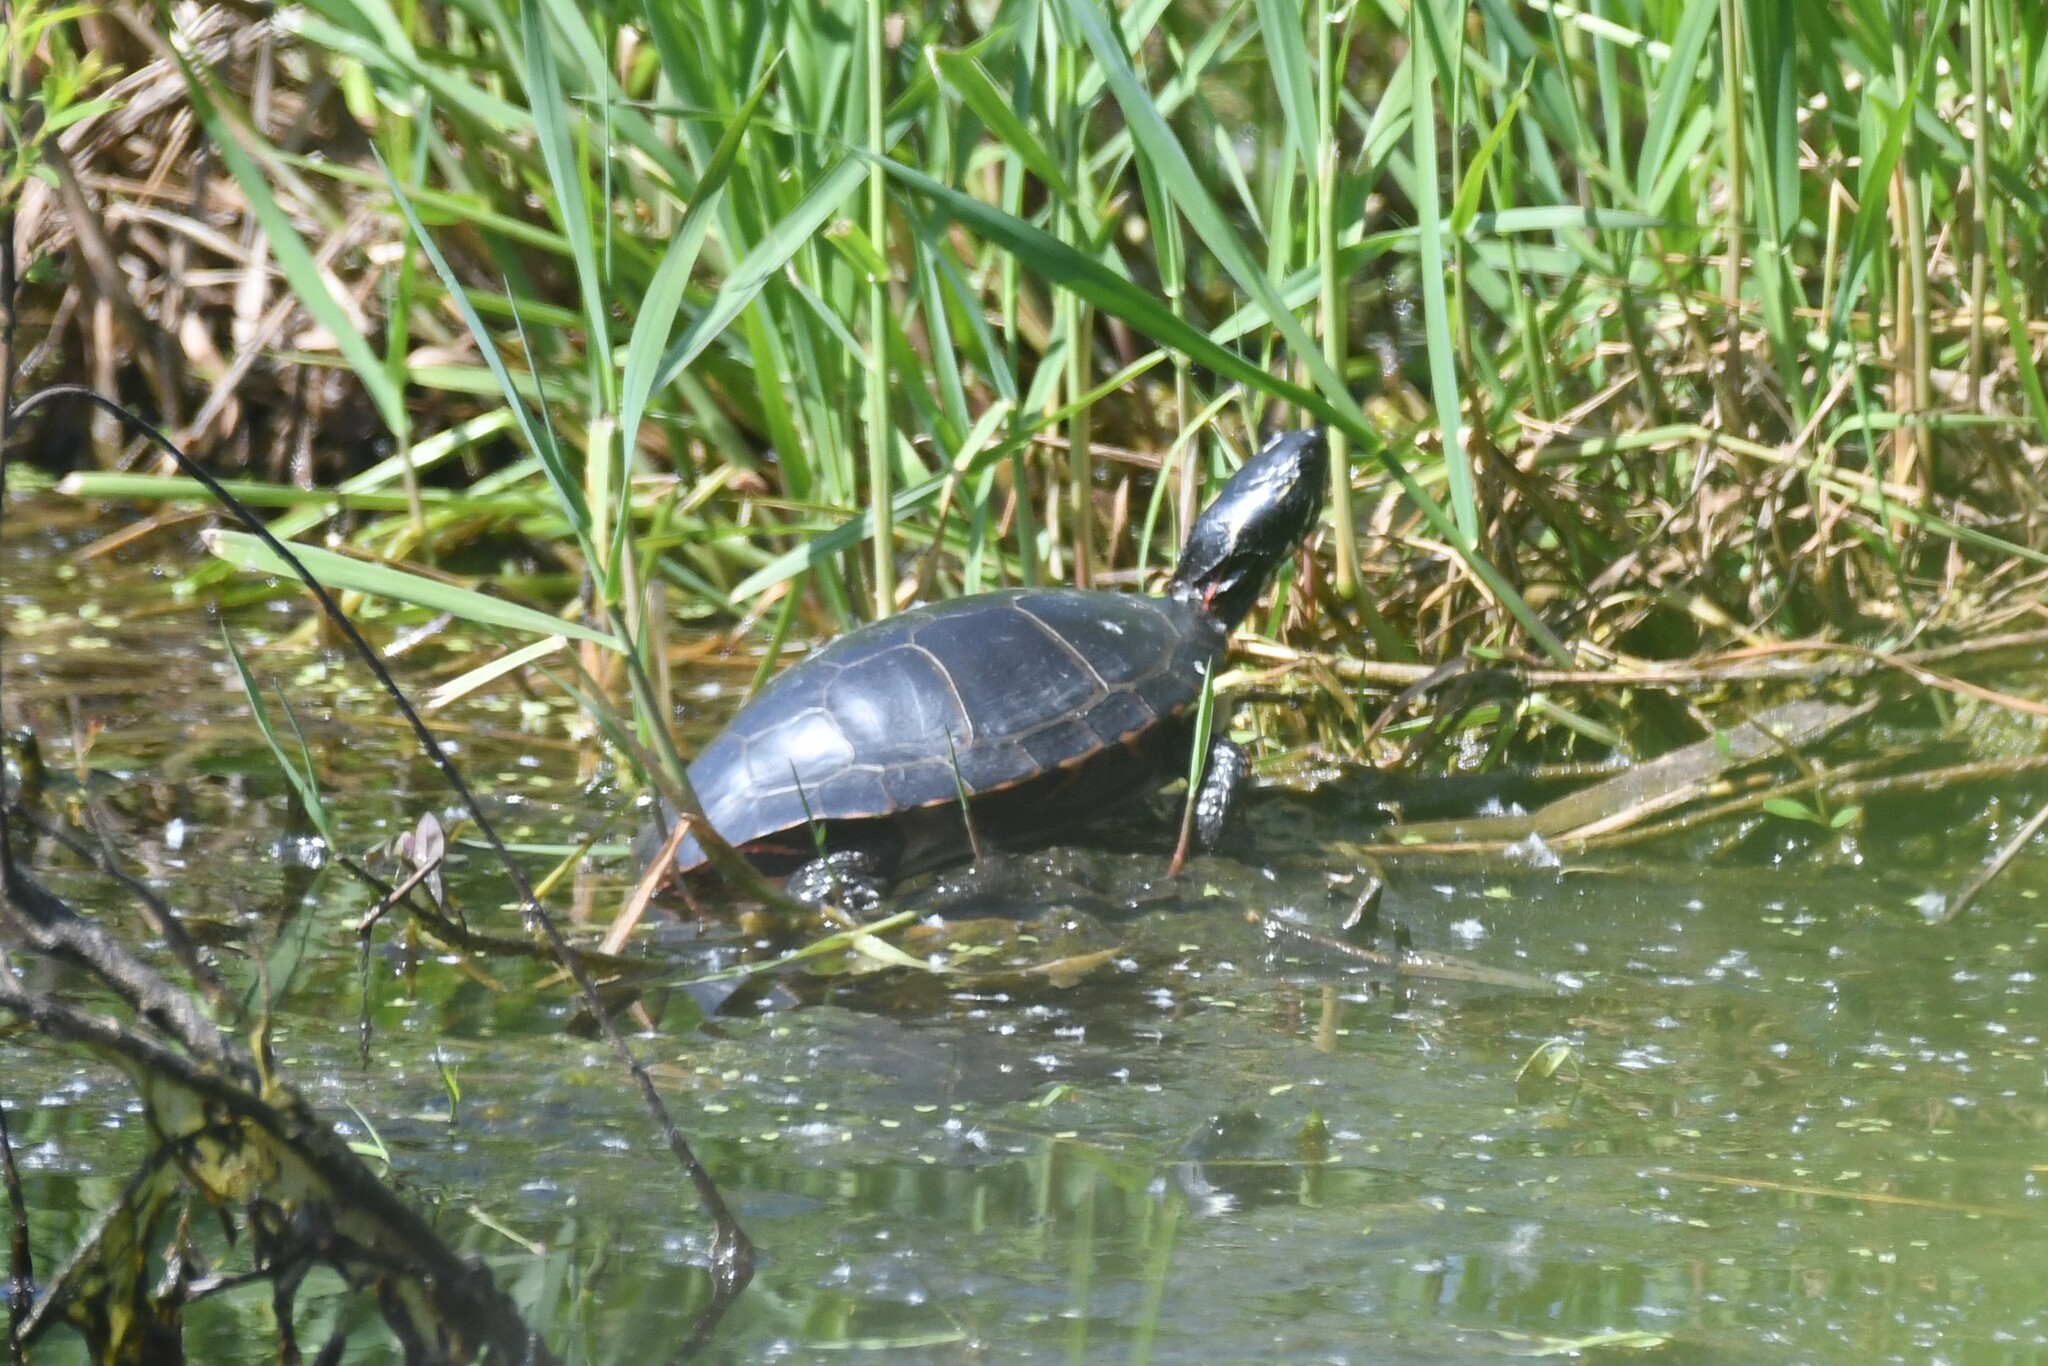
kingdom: Animalia
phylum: Chordata
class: Testudines
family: Emydidae
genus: Chrysemys
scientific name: Chrysemys picta
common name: Painted turtle
